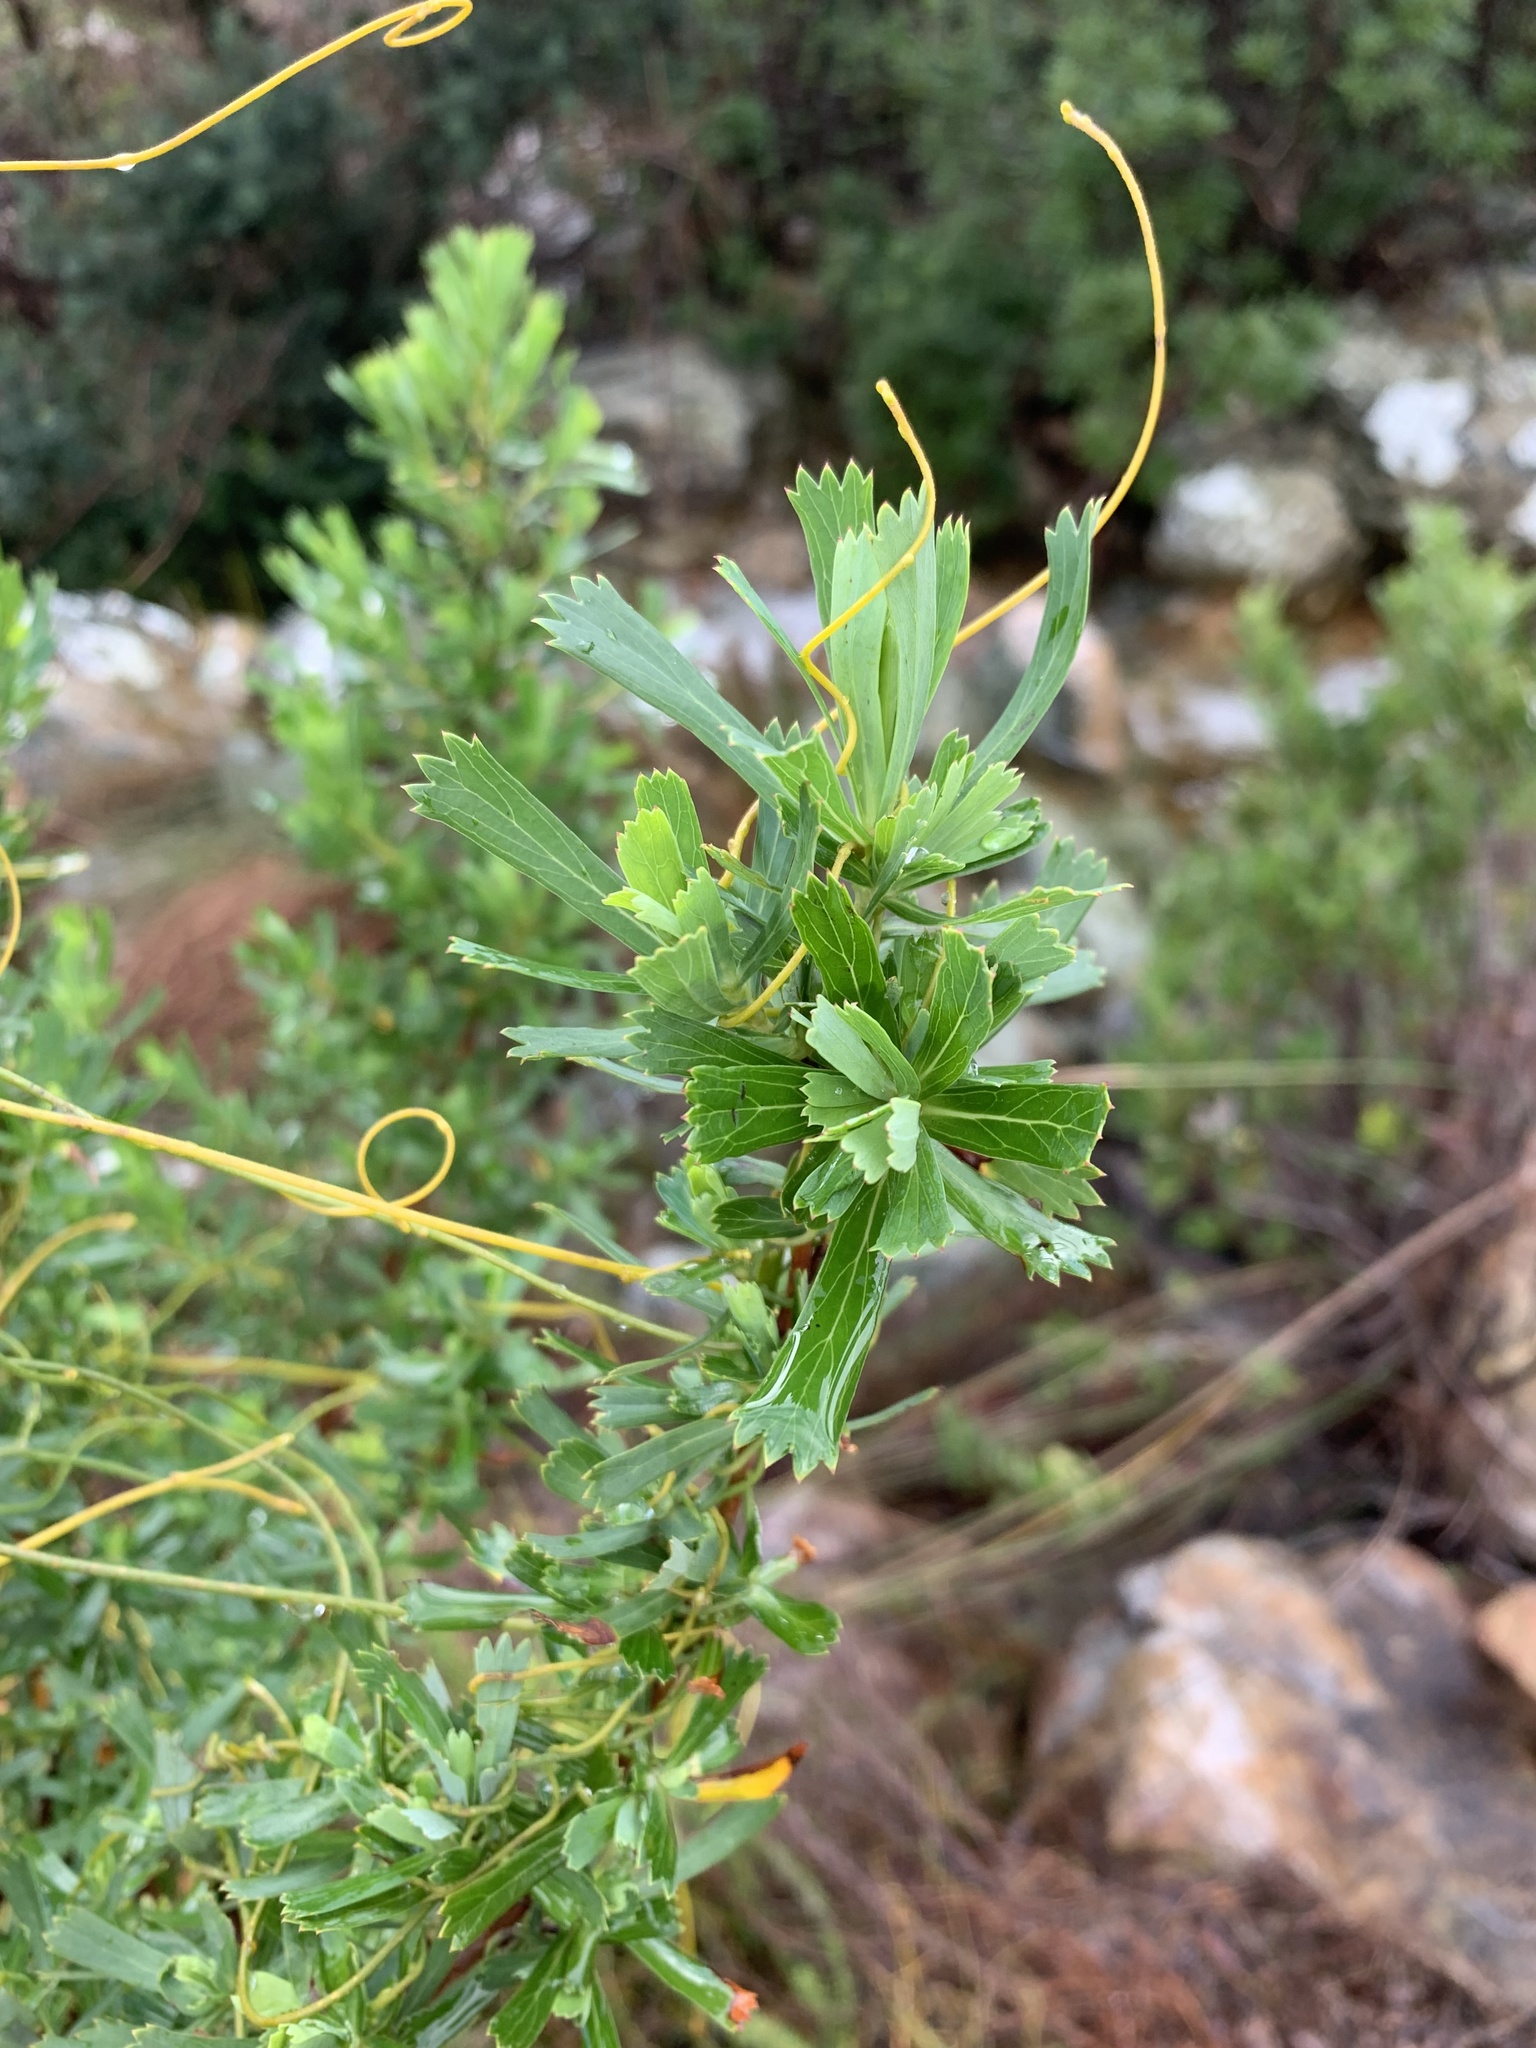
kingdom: Plantae
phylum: Tracheophyta
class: Magnoliopsida
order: Rosales
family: Rosaceae
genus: Cliffortia
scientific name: Cliffortia cuneata
